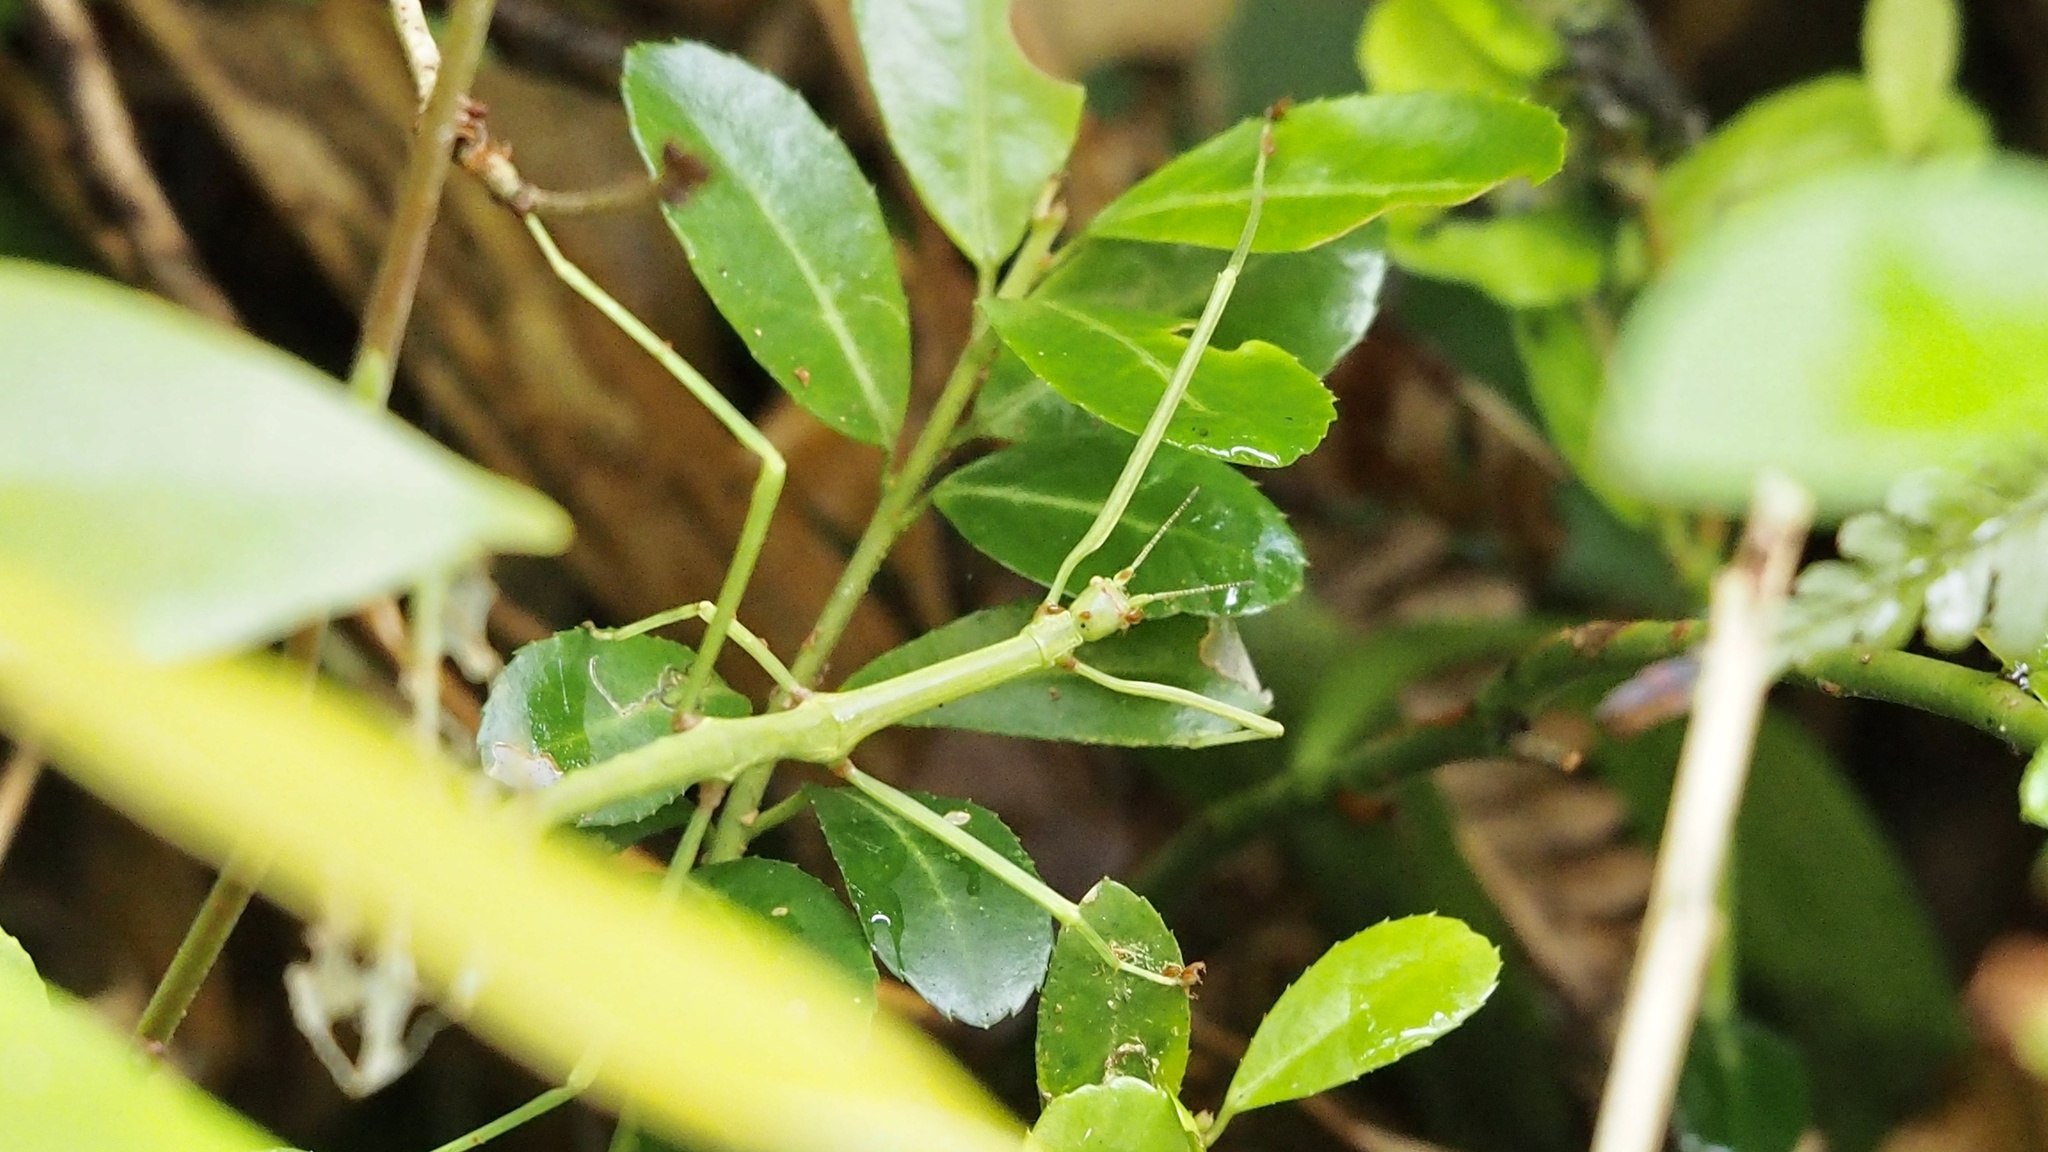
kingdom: Animalia
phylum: Arthropoda
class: Insecta
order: Phasmida
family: Phasmatidae
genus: Ramulus
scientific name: Ramulus mikado
